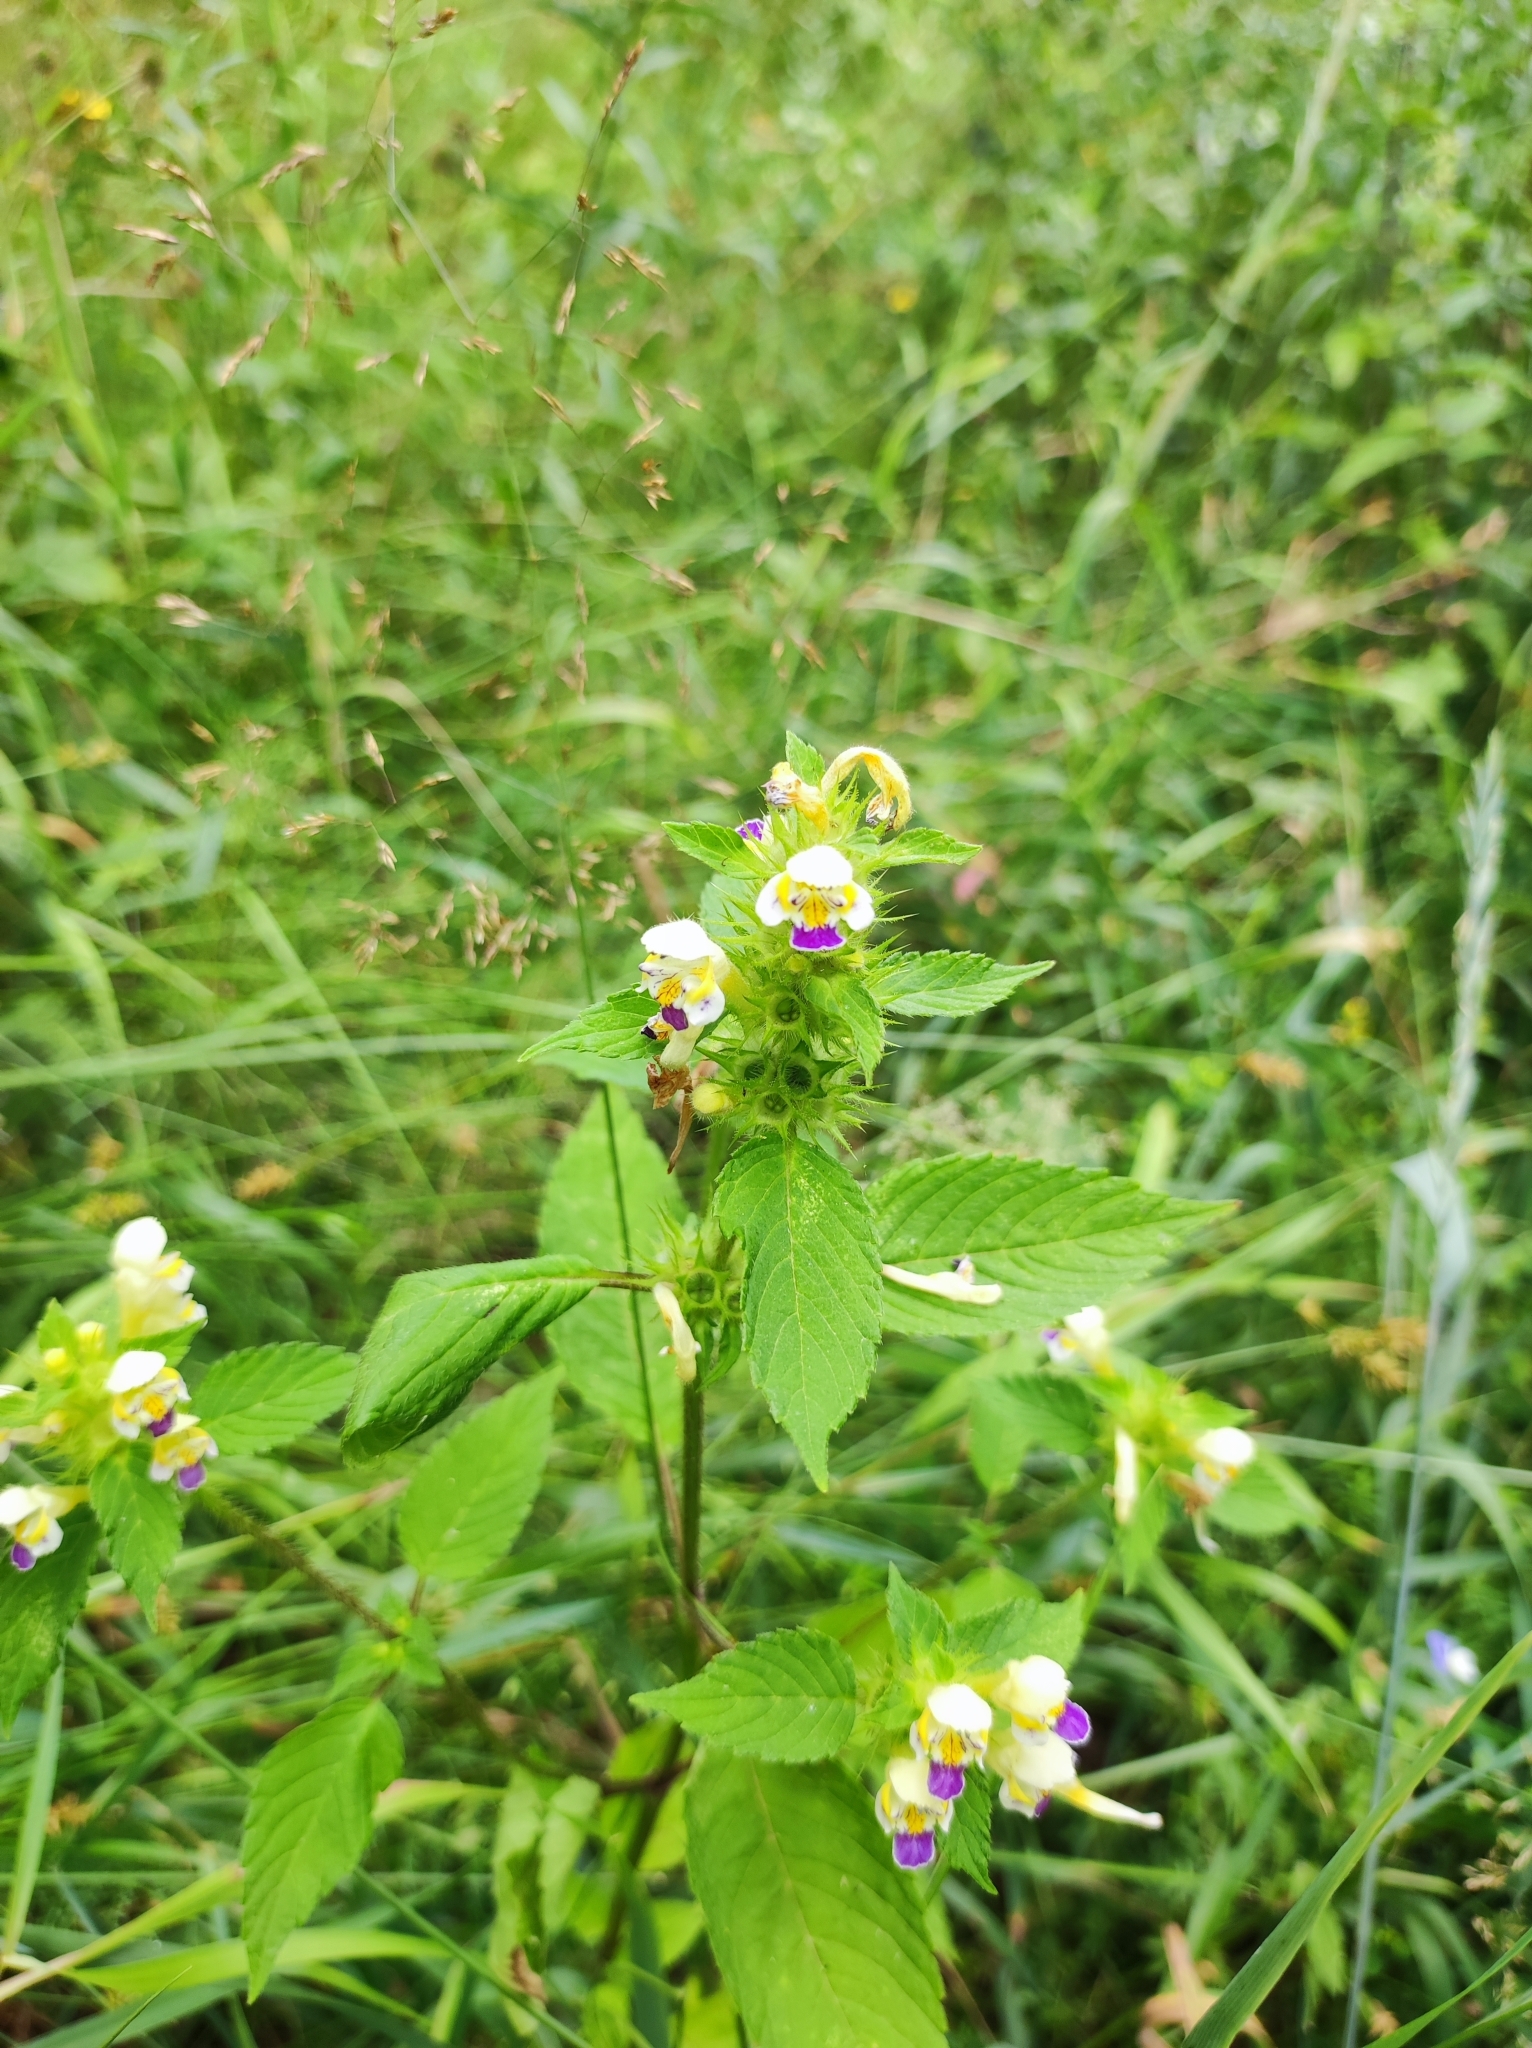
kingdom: Plantae
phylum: Tracheophyta
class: Magnoliopsida
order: Lamiales
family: Lamiaceae
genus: Galeopsis
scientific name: Galeopsis speciosa
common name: Large-flowered hemp-nettle
